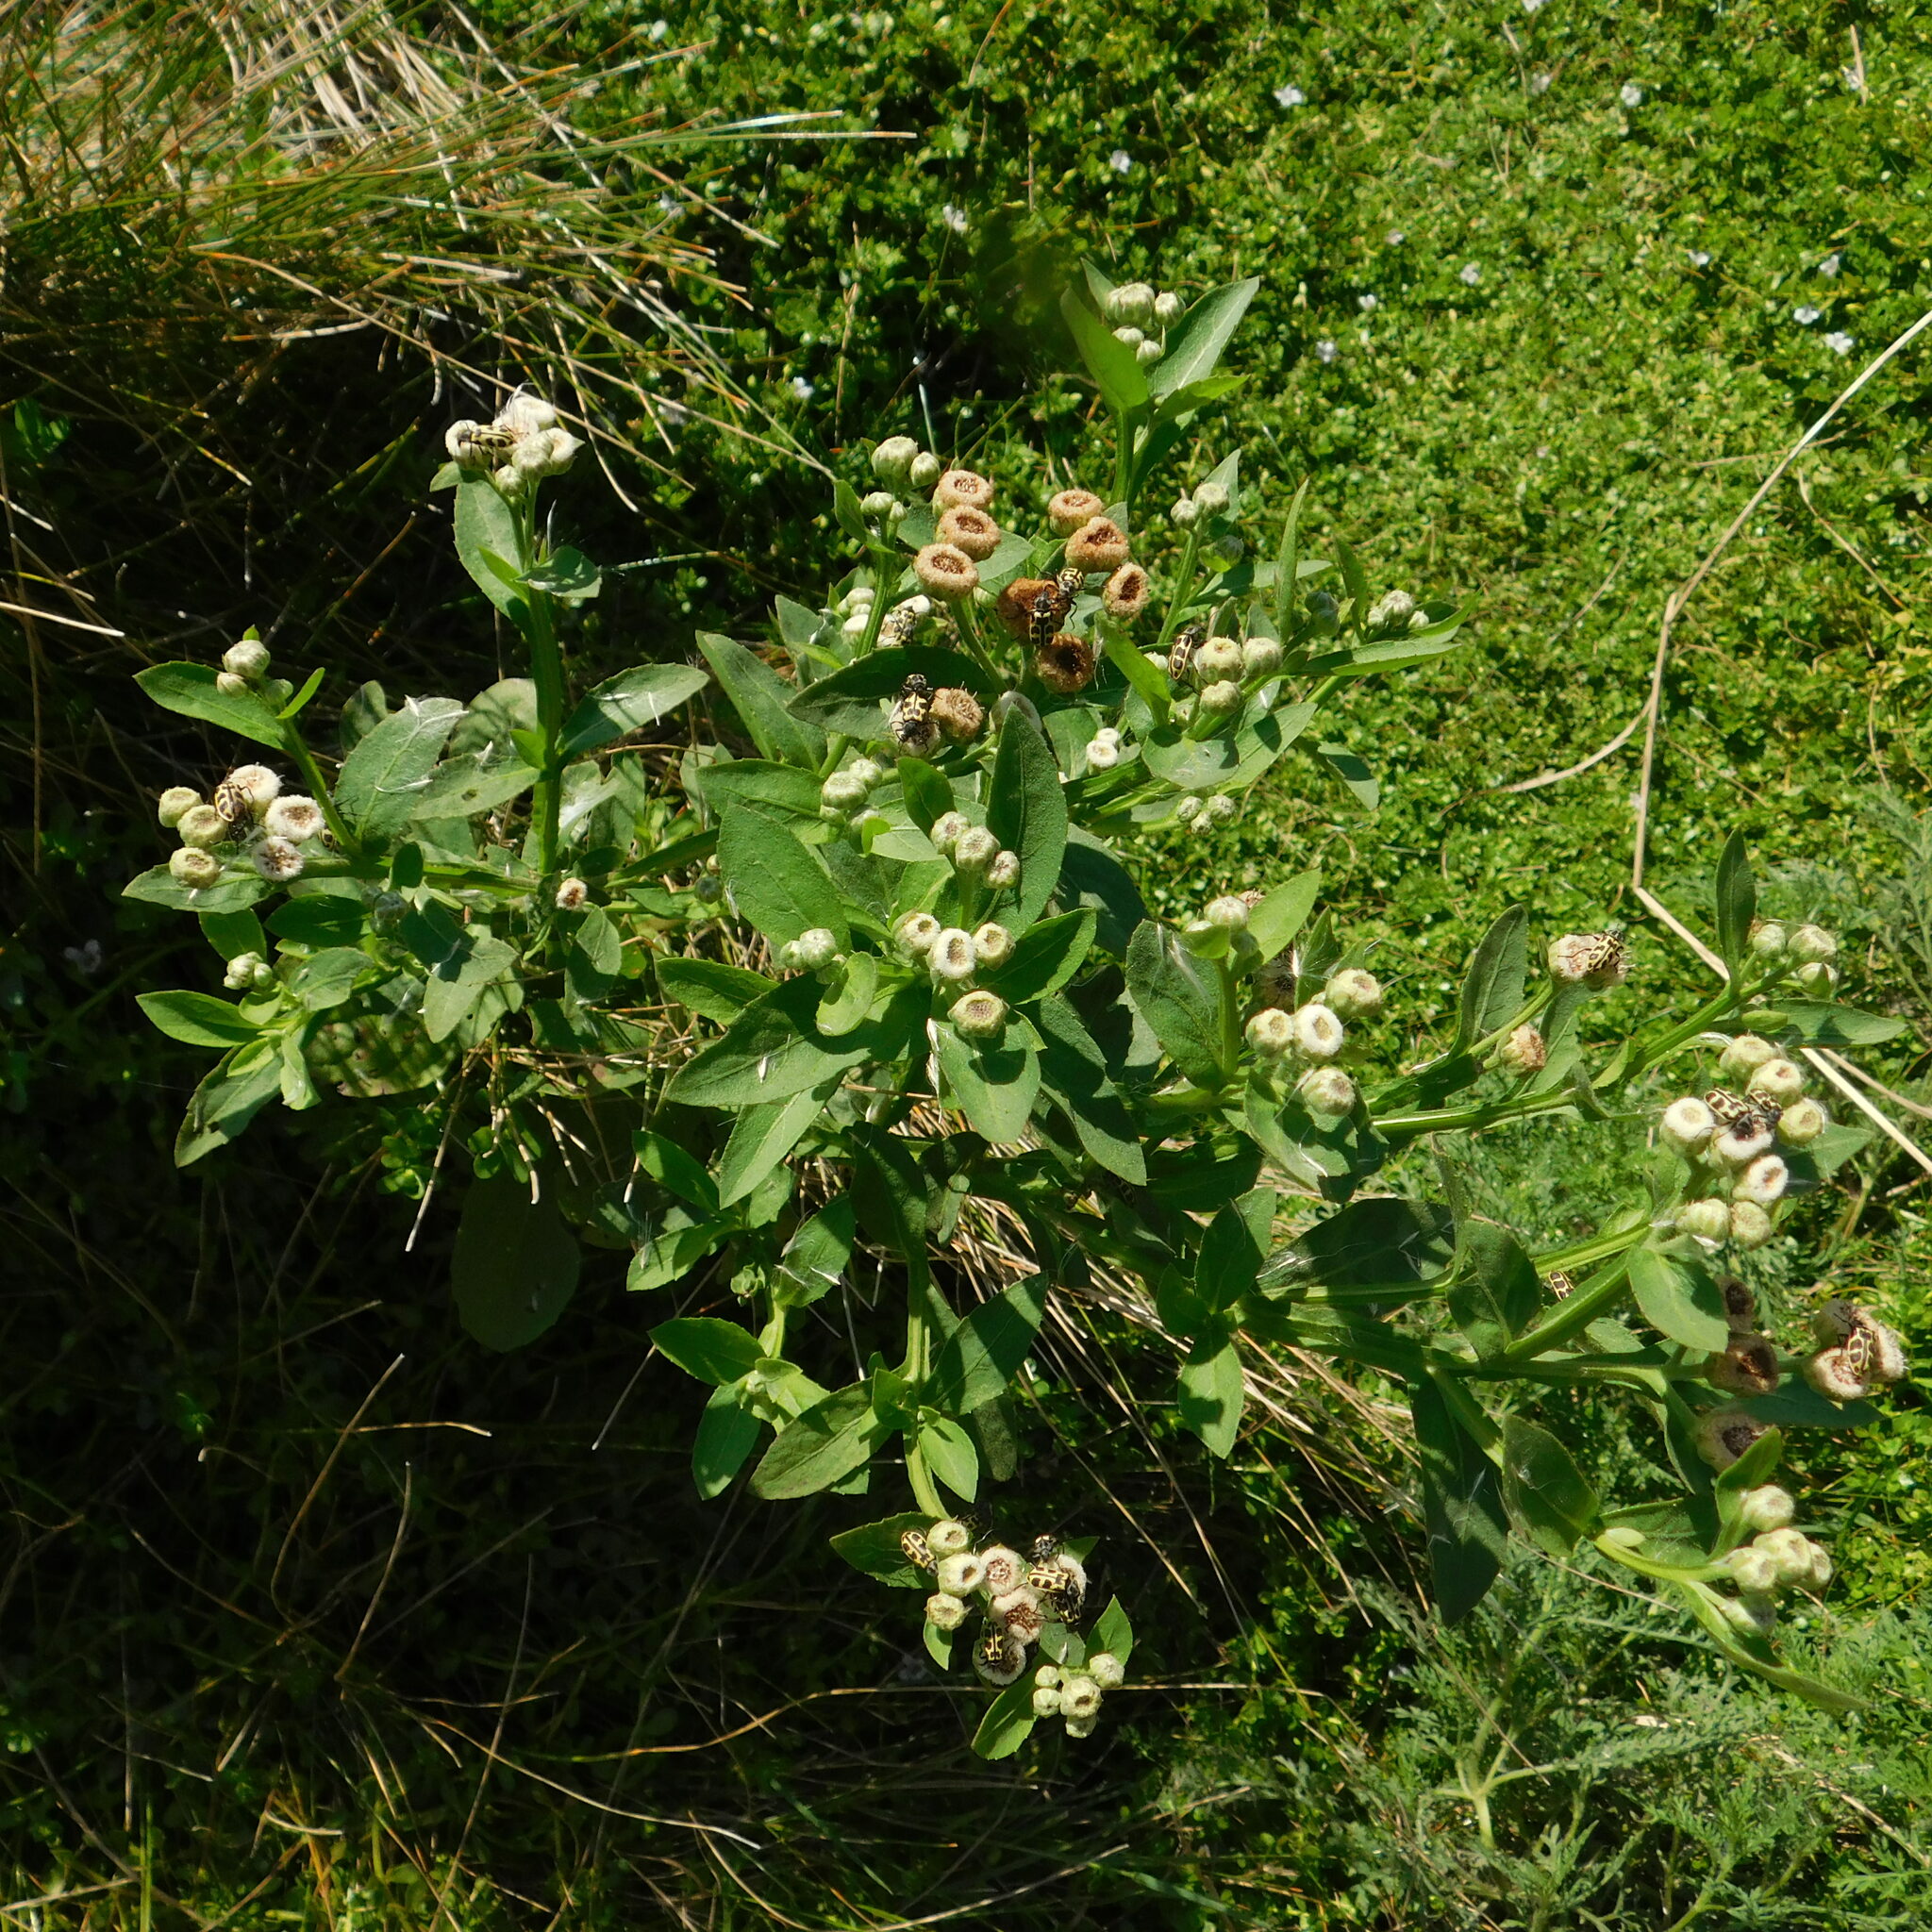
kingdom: Plantae
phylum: Tracheophyta
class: Magnoliopsida
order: Asterales
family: Asteraceae
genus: Pluchea
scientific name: Pluchea sagittalis
